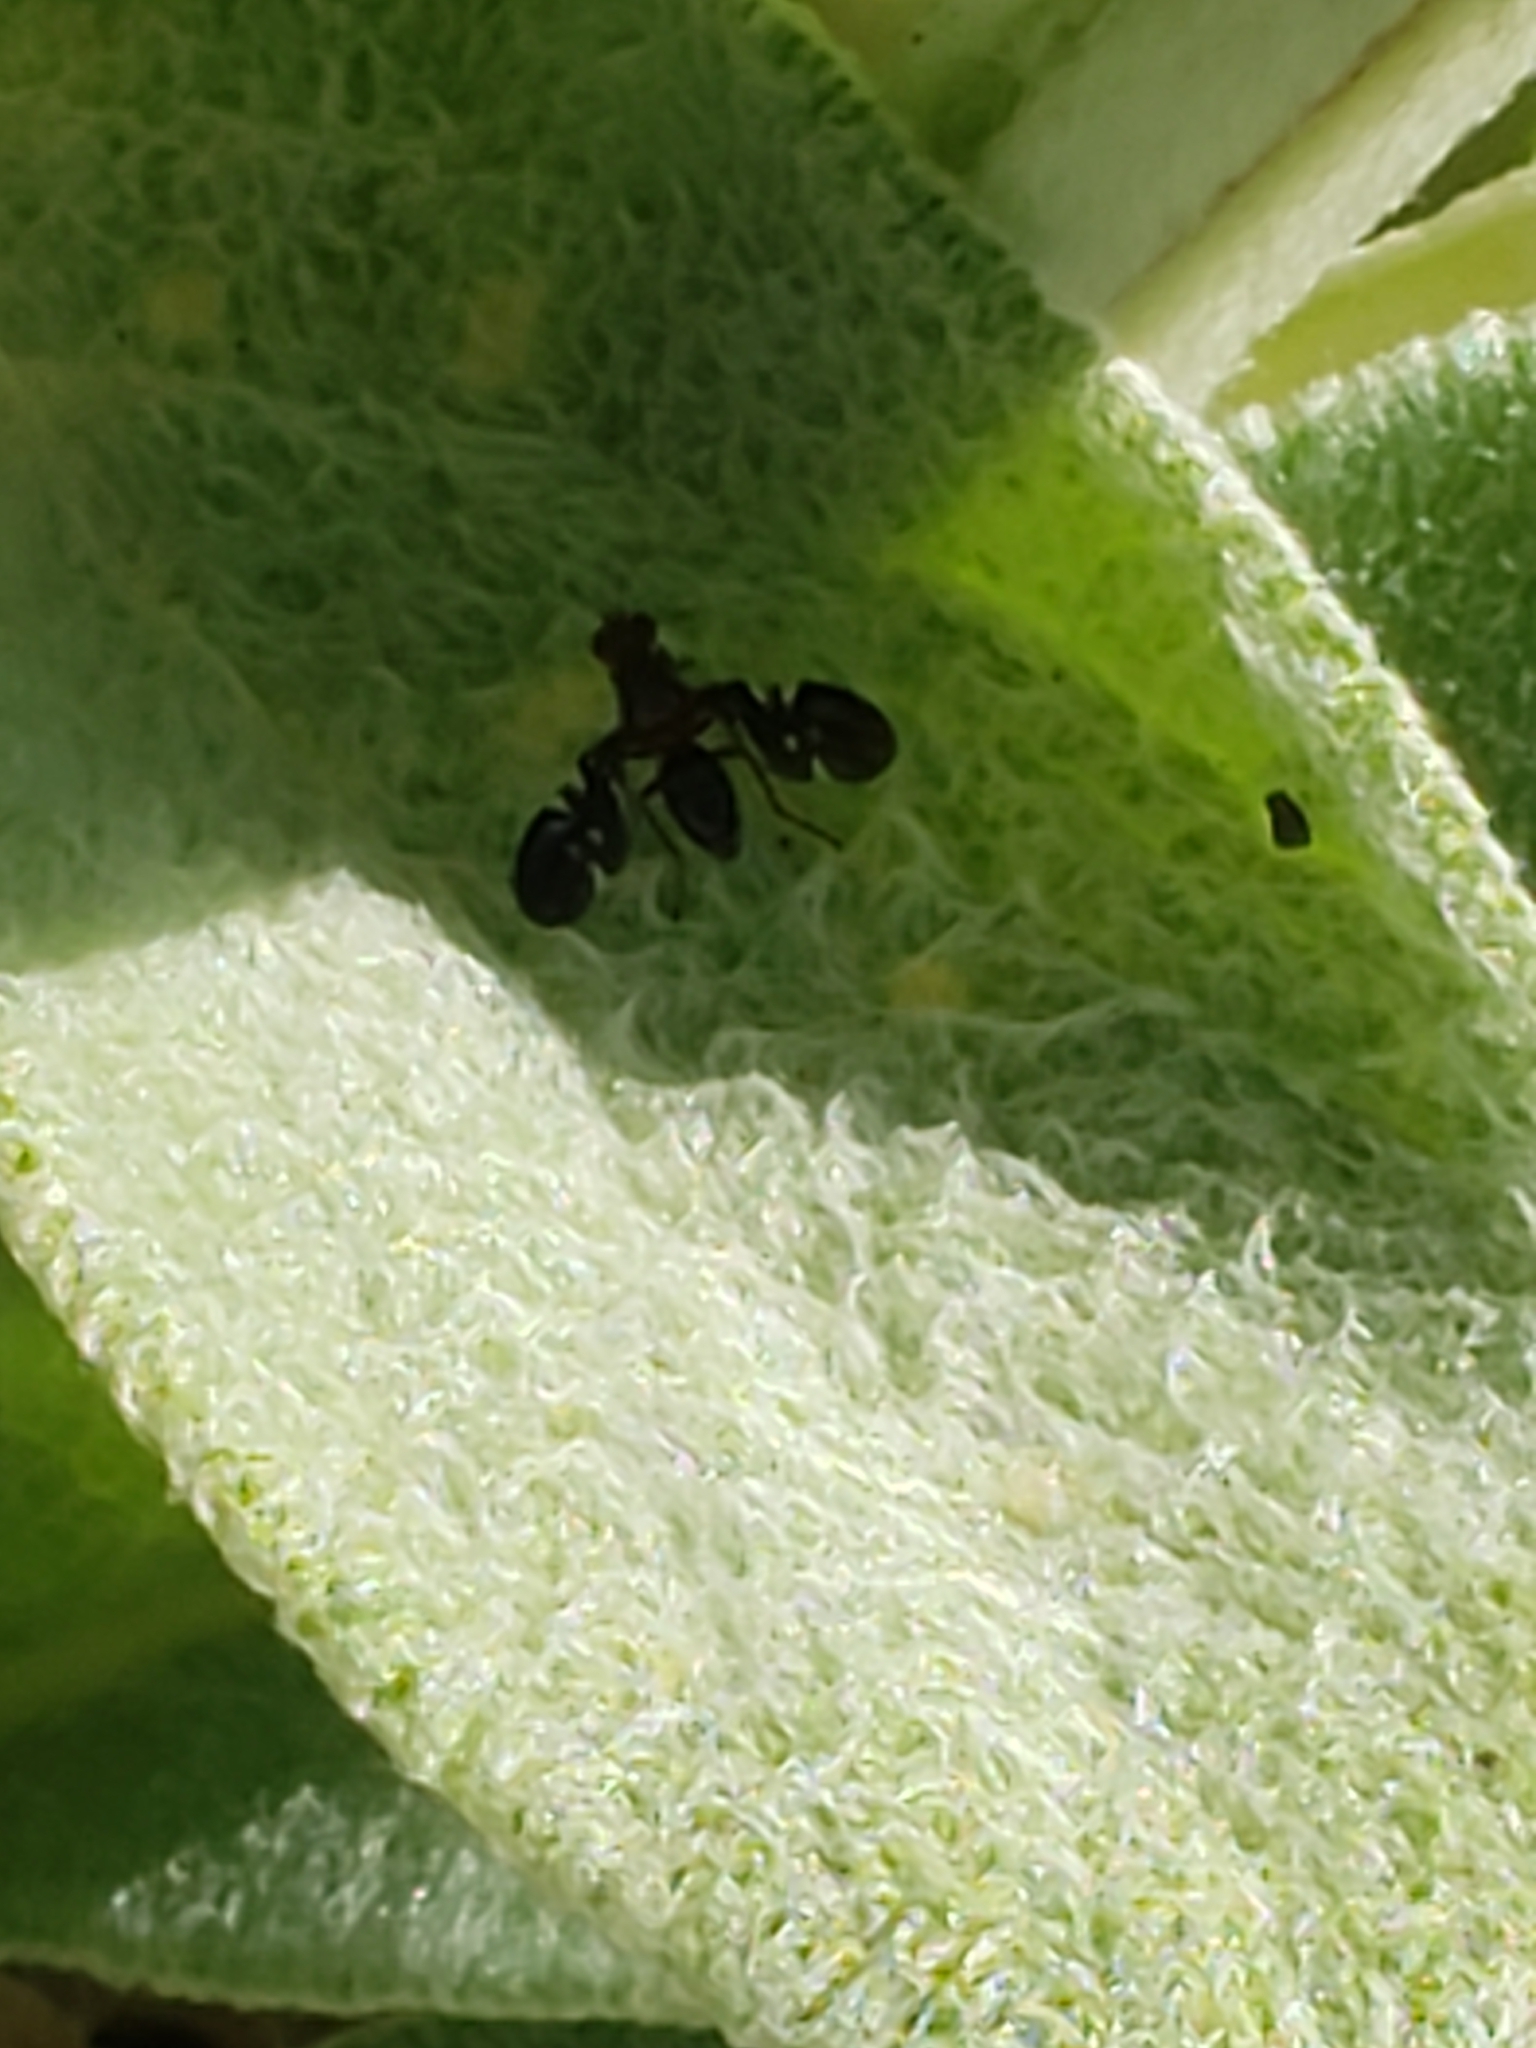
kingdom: Animalia
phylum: Arthropoda
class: Insecta
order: Diptera
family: Ulidiidae
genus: Delphinia
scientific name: Delphinia picta
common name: Common picture-winged fly
